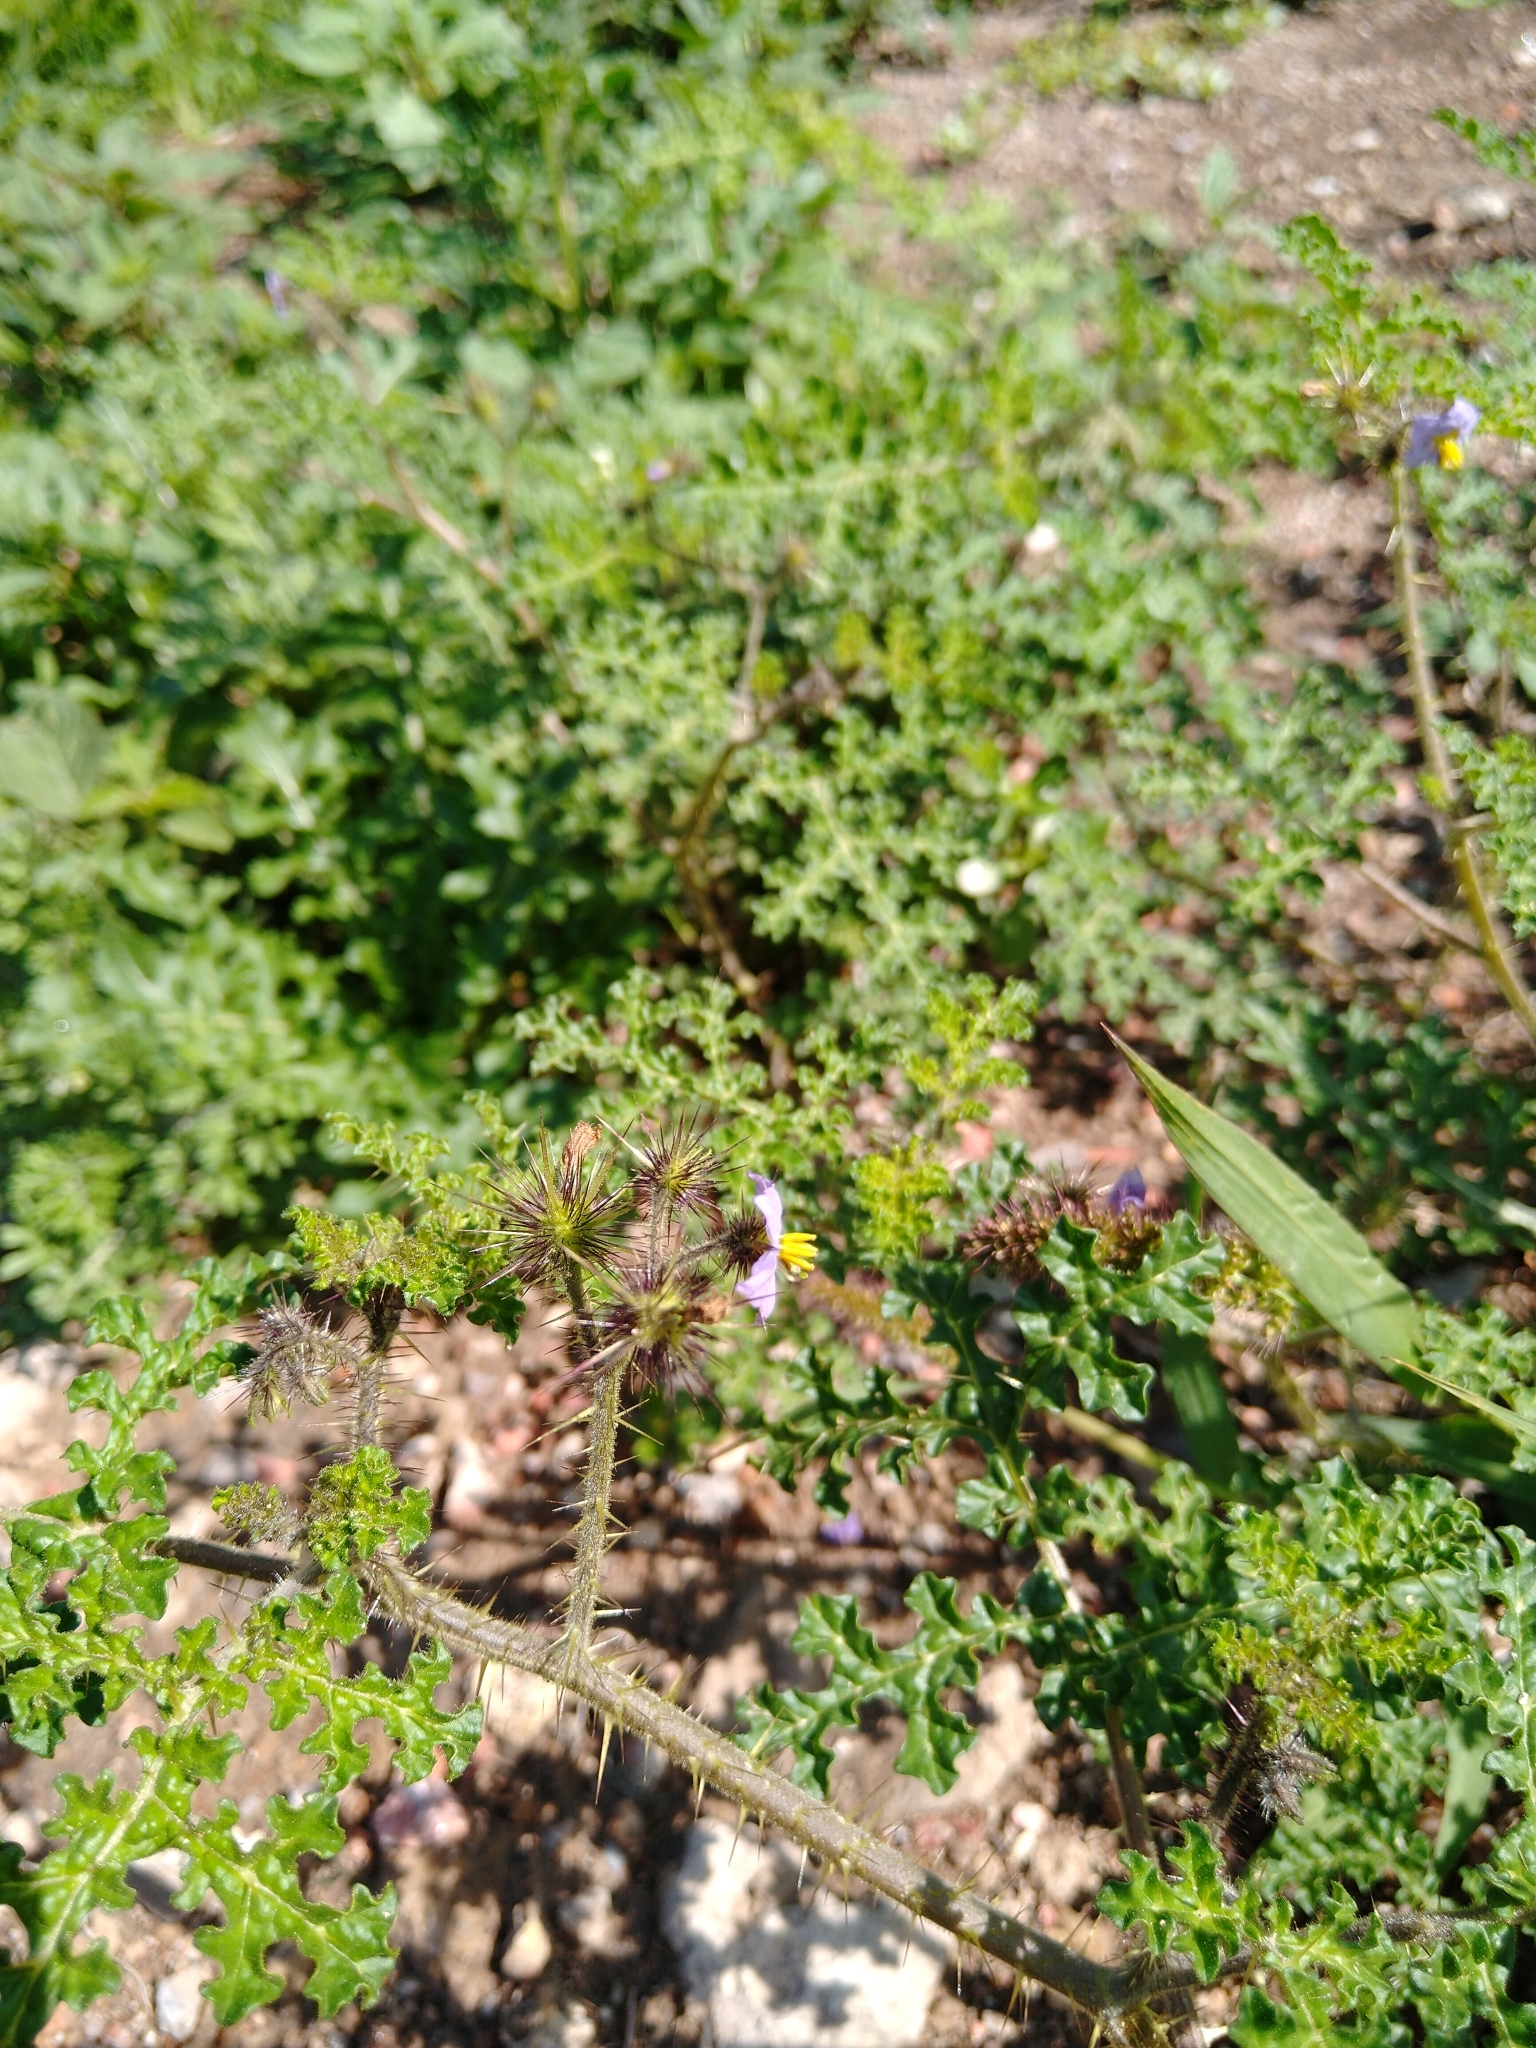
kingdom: Plantae
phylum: Tracheophyta
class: Magnoliopsida
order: Solanales
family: Solanaceae
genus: Solanum
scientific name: Solanum heterodoxum
